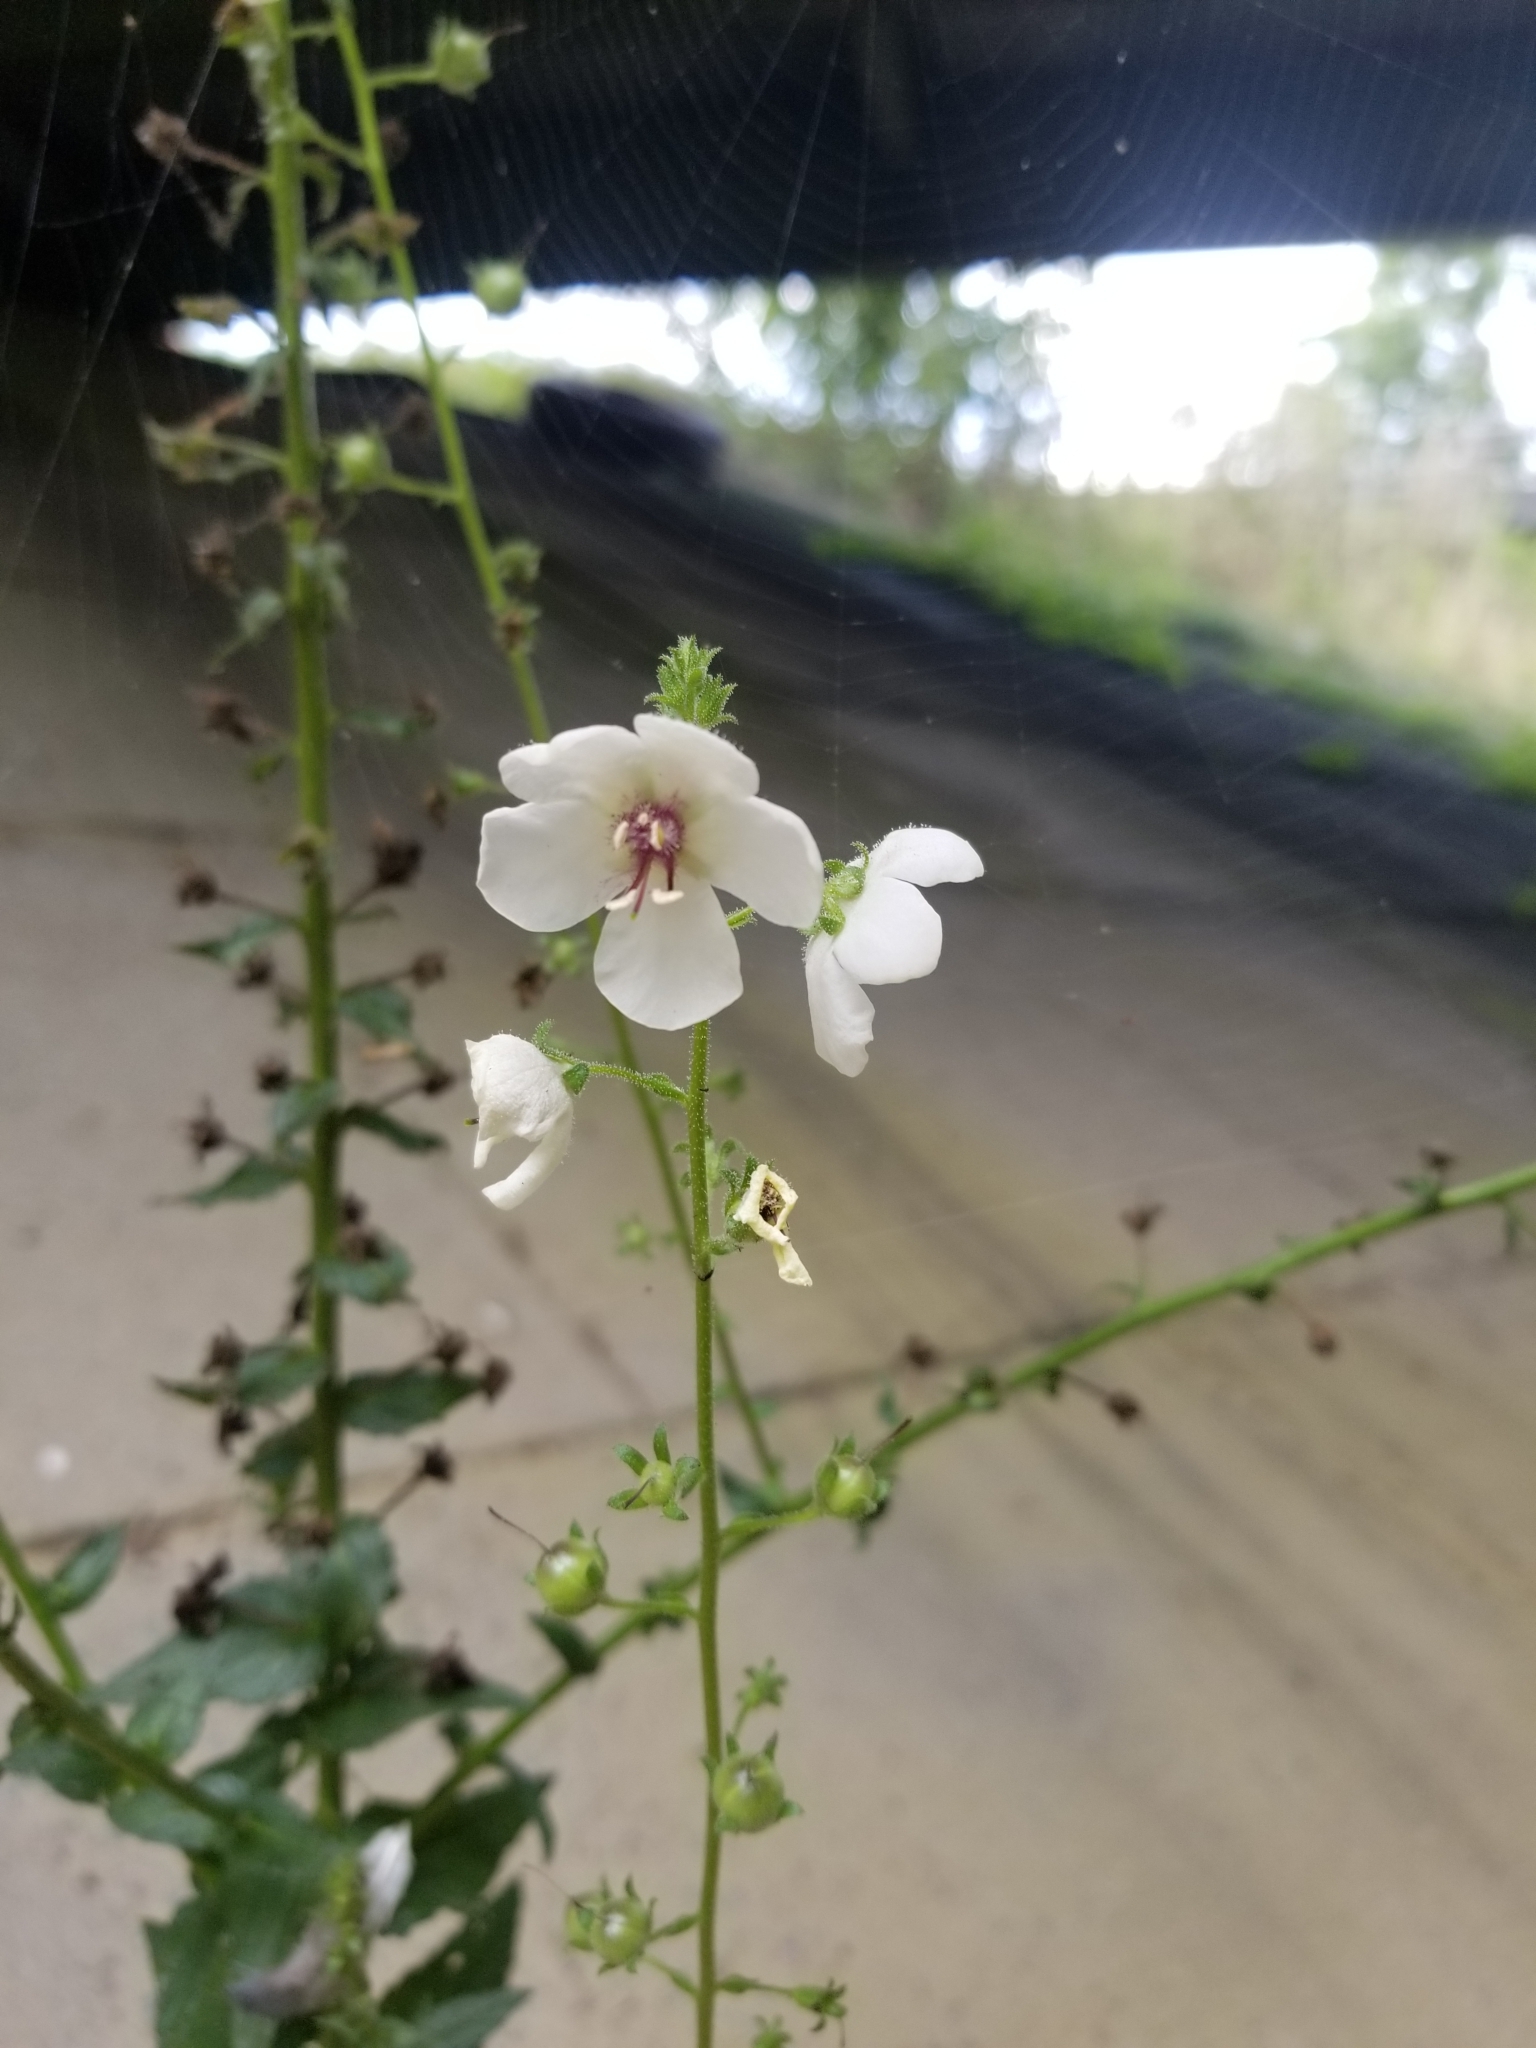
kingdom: Plantae
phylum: Tracheophyta
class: Magnoliopsida
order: Lamiales
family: Scrophulariaceae
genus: Verbascum
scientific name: Verbascum blattaria
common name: Moth mullein
